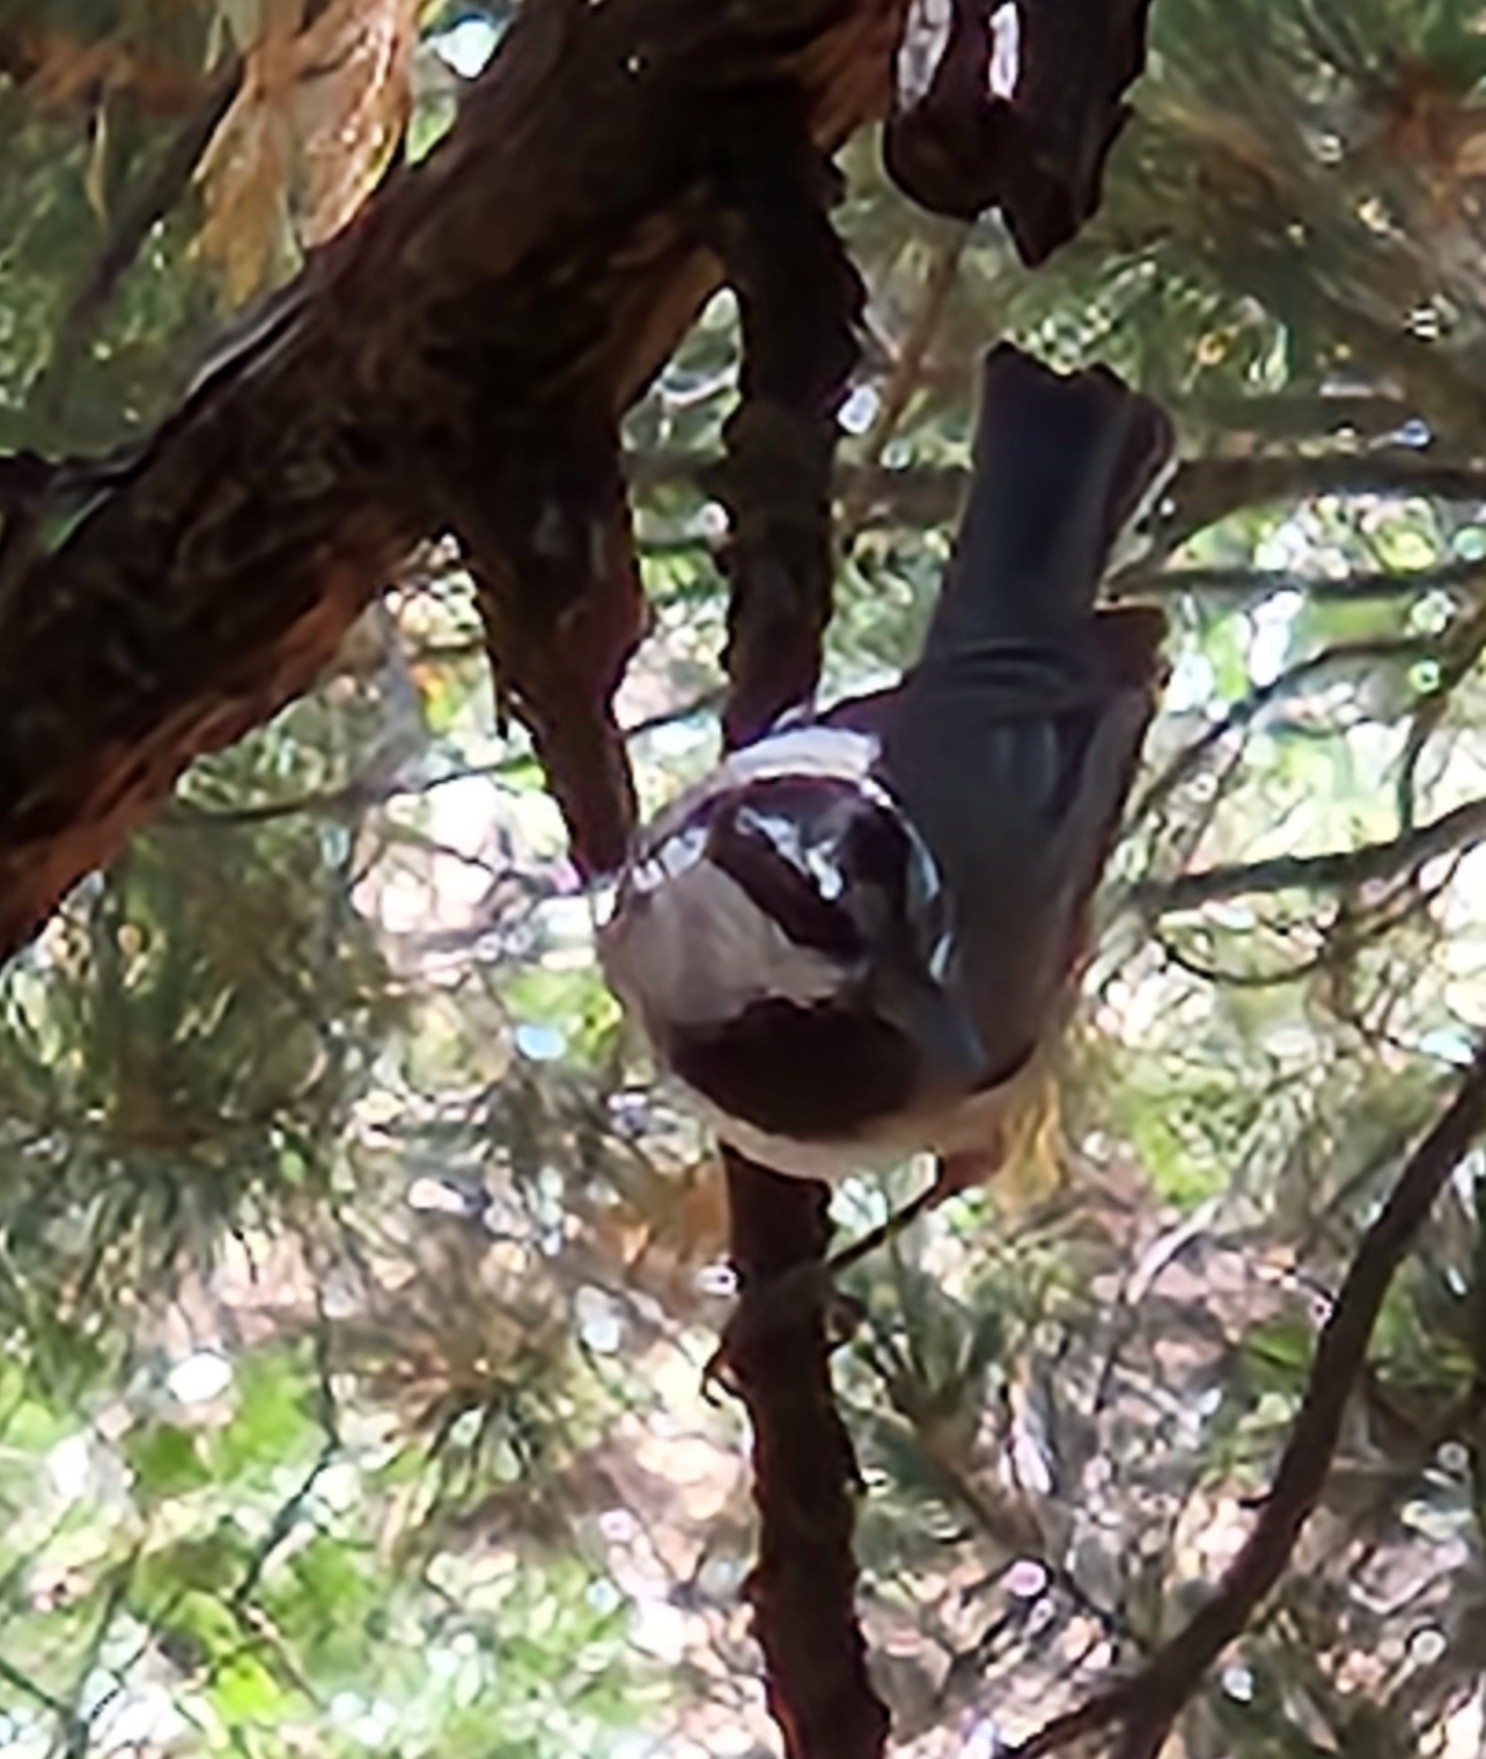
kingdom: Animalia
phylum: Chordata
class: Aves
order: Passeriformes
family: Paridae
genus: Poecile
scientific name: Poecile gambeli
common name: Mountain chickadee
